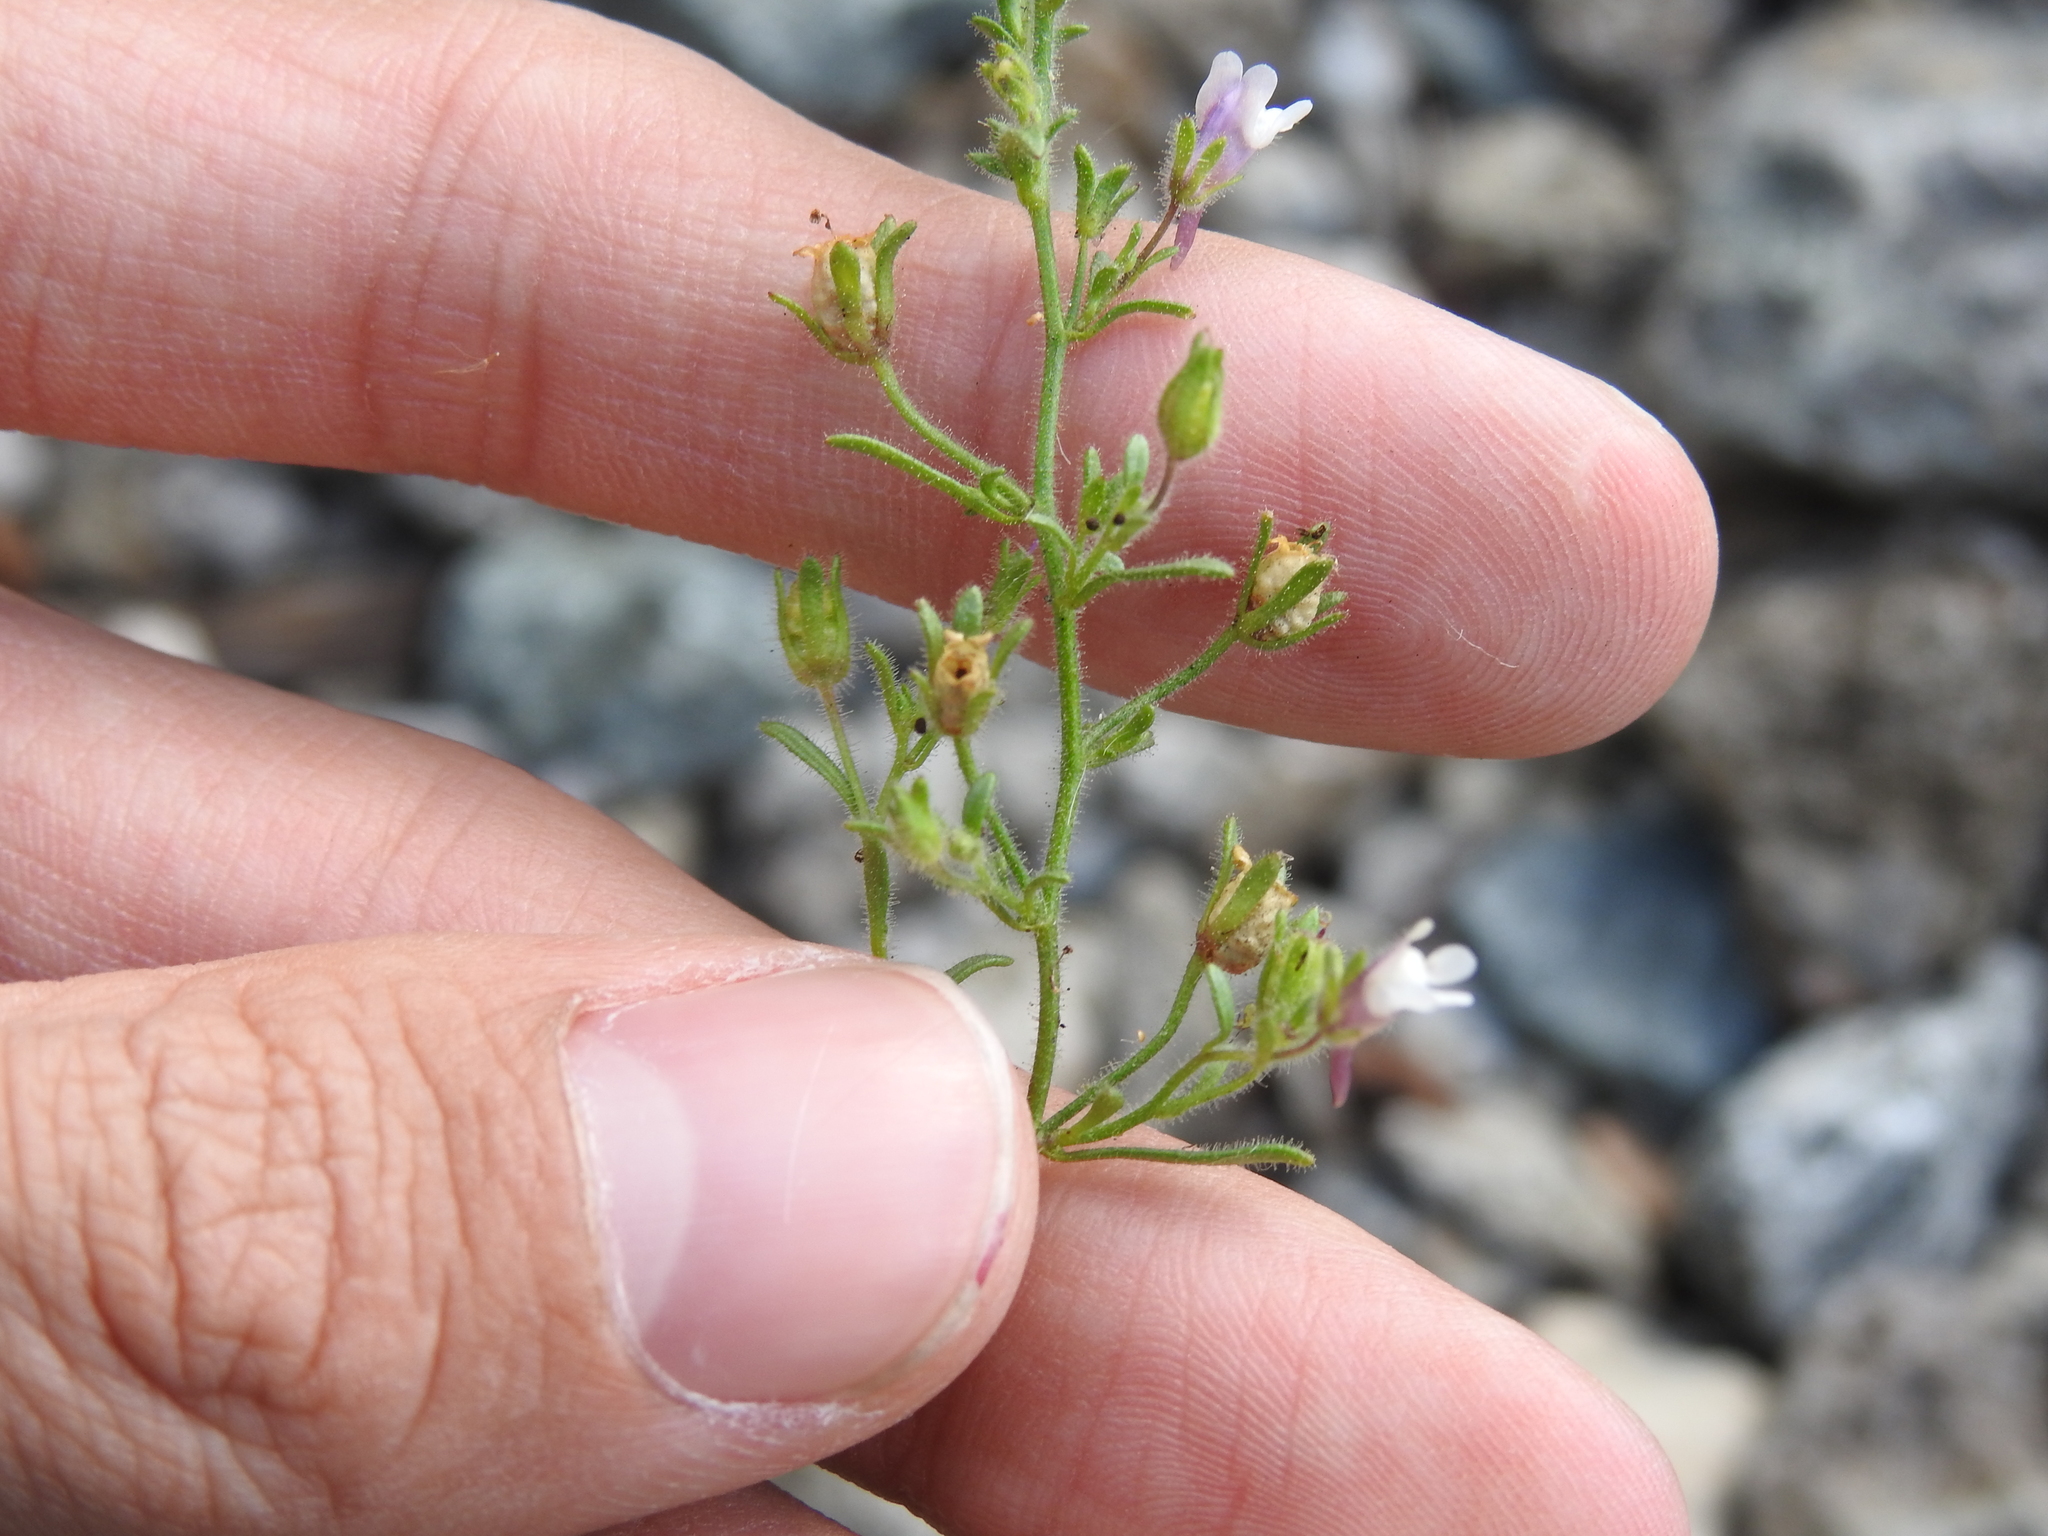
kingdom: Plantae
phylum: Tracheophyta
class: Magnoliopsida
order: Lamiales
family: Plantaginaceae
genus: Chaenorhinum
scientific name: Chaenorhinum minus
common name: Dwarf snapdragon
